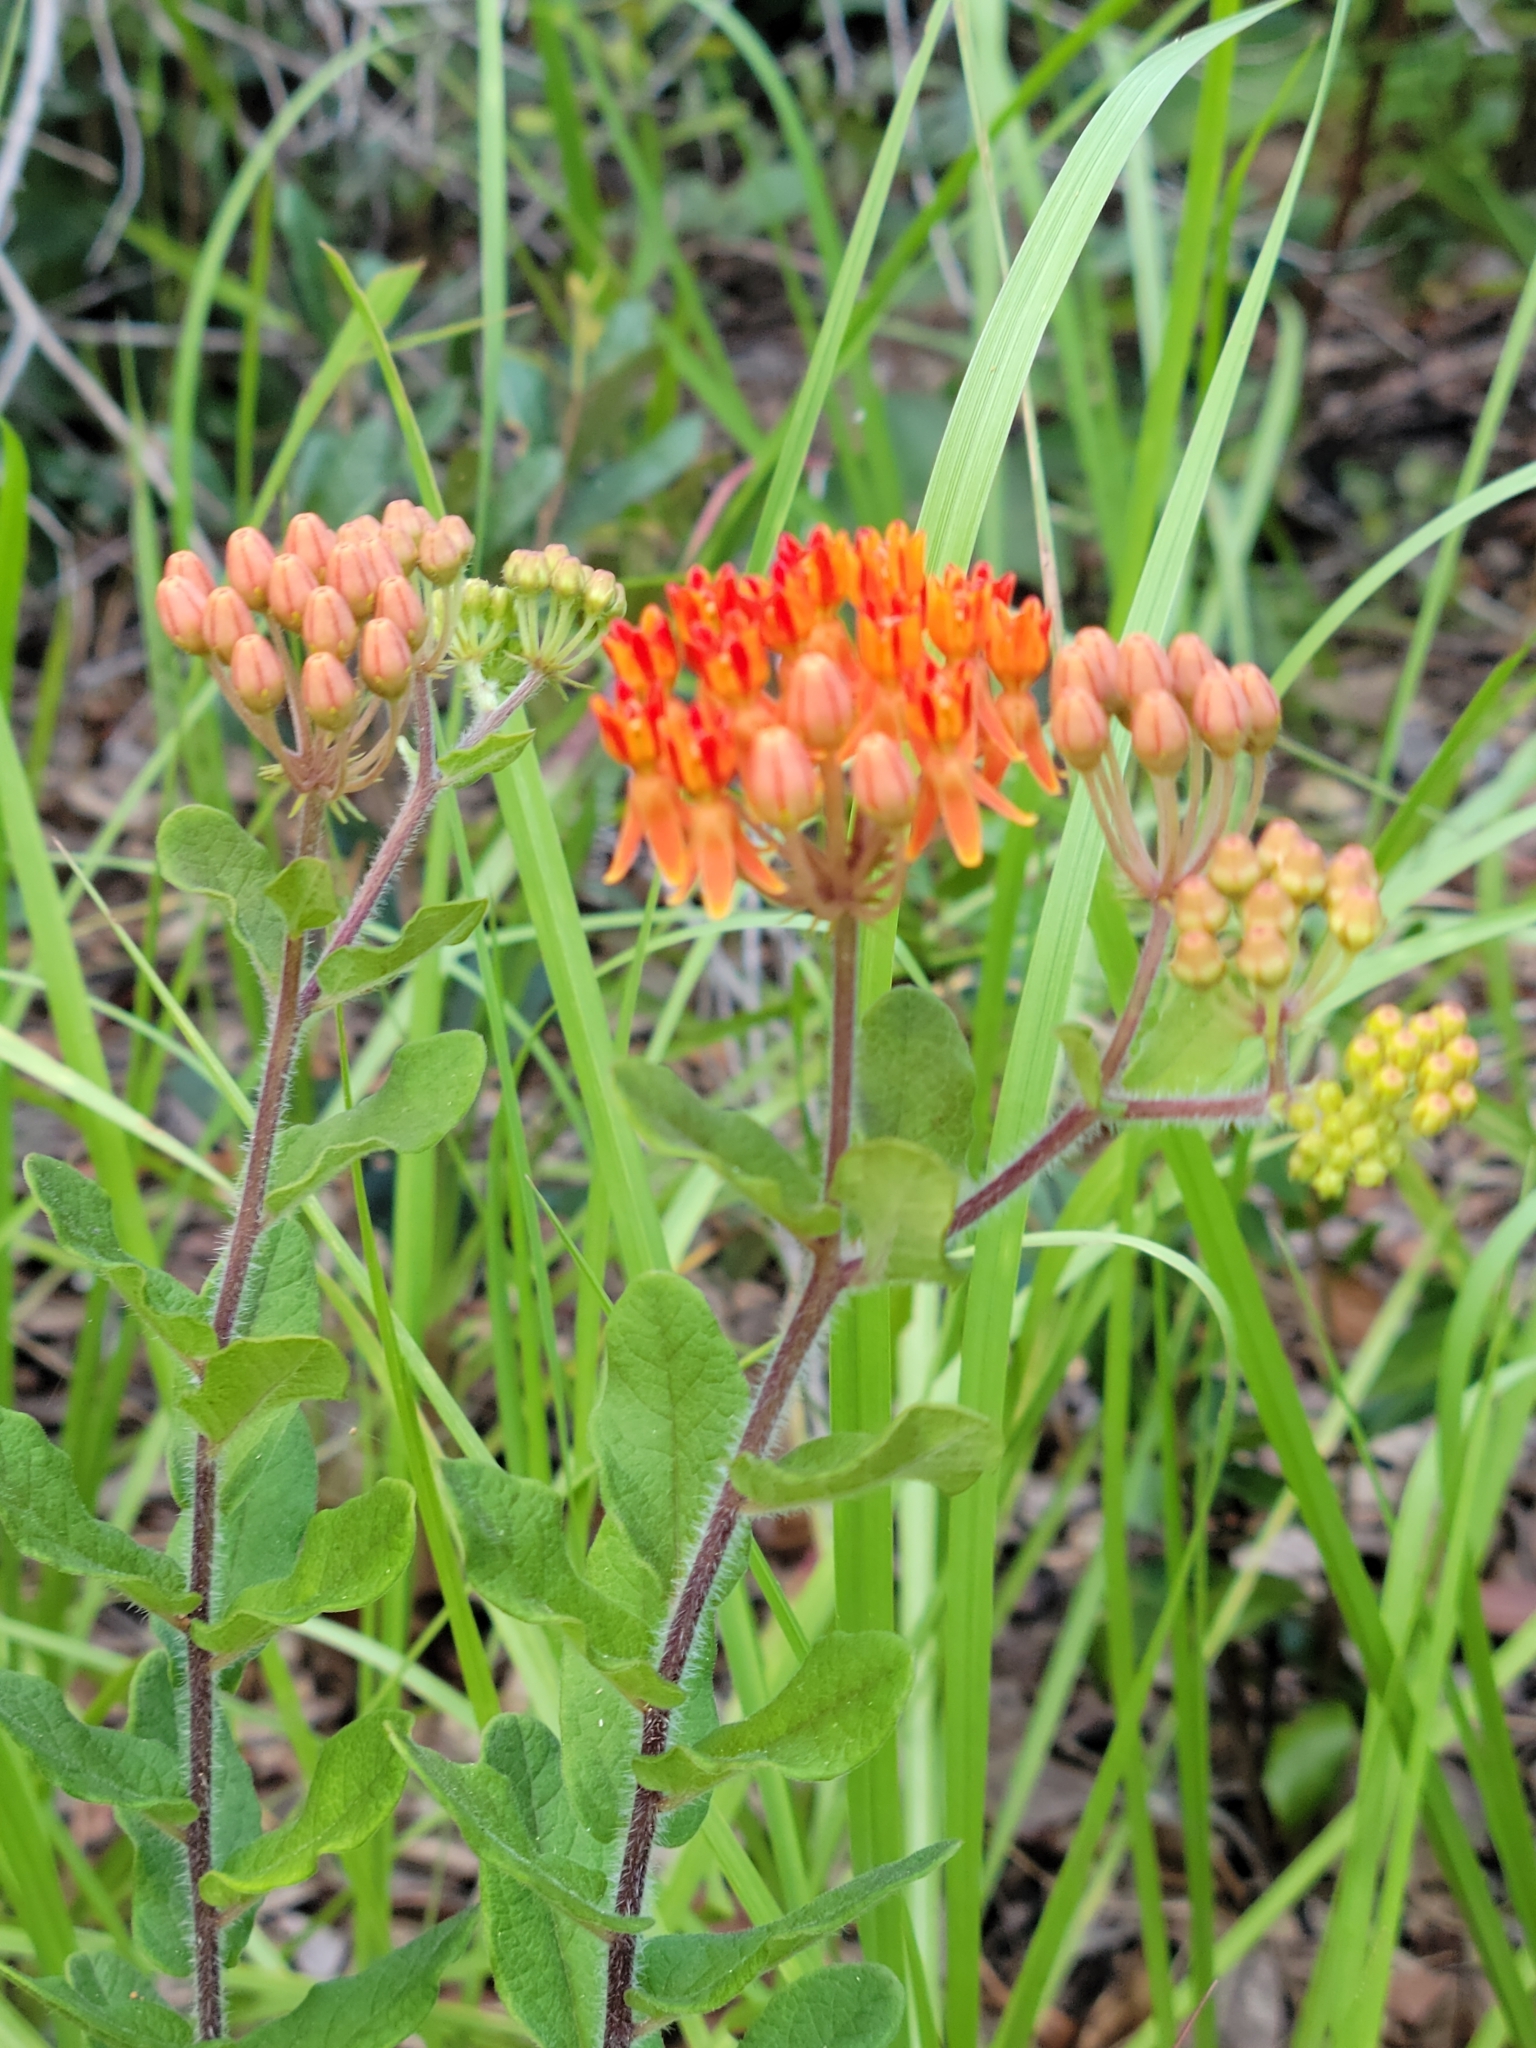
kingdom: Plantae
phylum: Tracheophyta
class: Magnoliopsida
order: Gentianales
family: Apocynaceae
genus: Asclepias
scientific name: Asclepias tuberosa
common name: Butterfly milkweed
